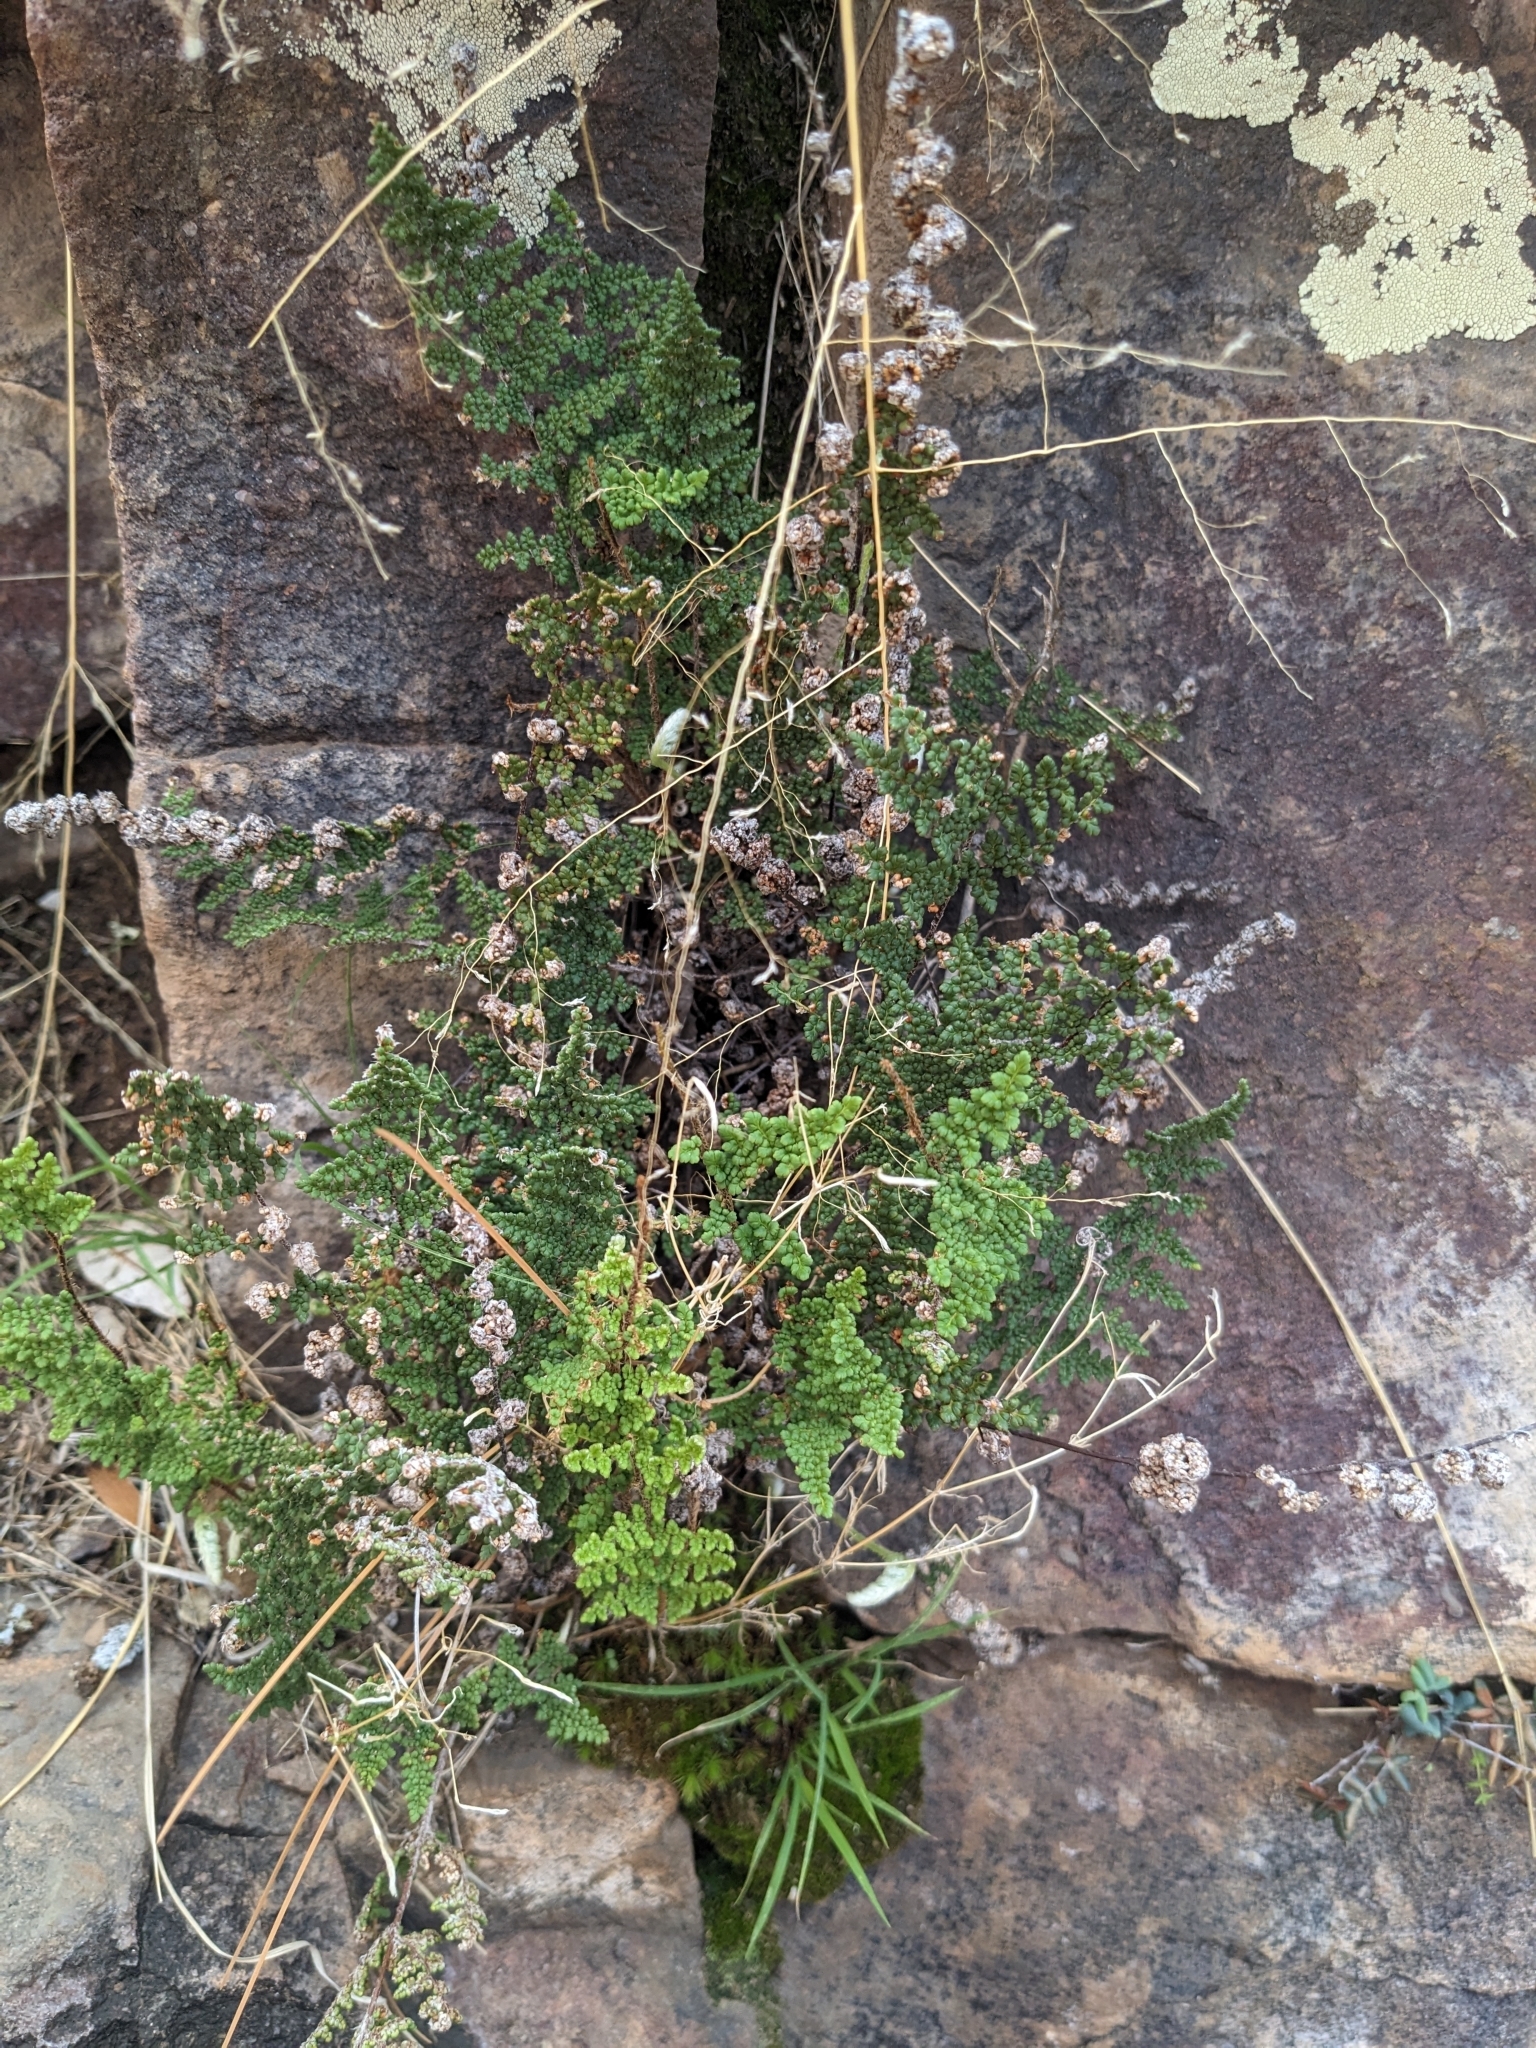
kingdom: Plantae
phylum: Tracheophyta
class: Polypodiopsida
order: Polypodiales
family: Pteridaceae
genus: Myriopteris
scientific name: Myriopteris fendleri
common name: Fendler's lip fern
